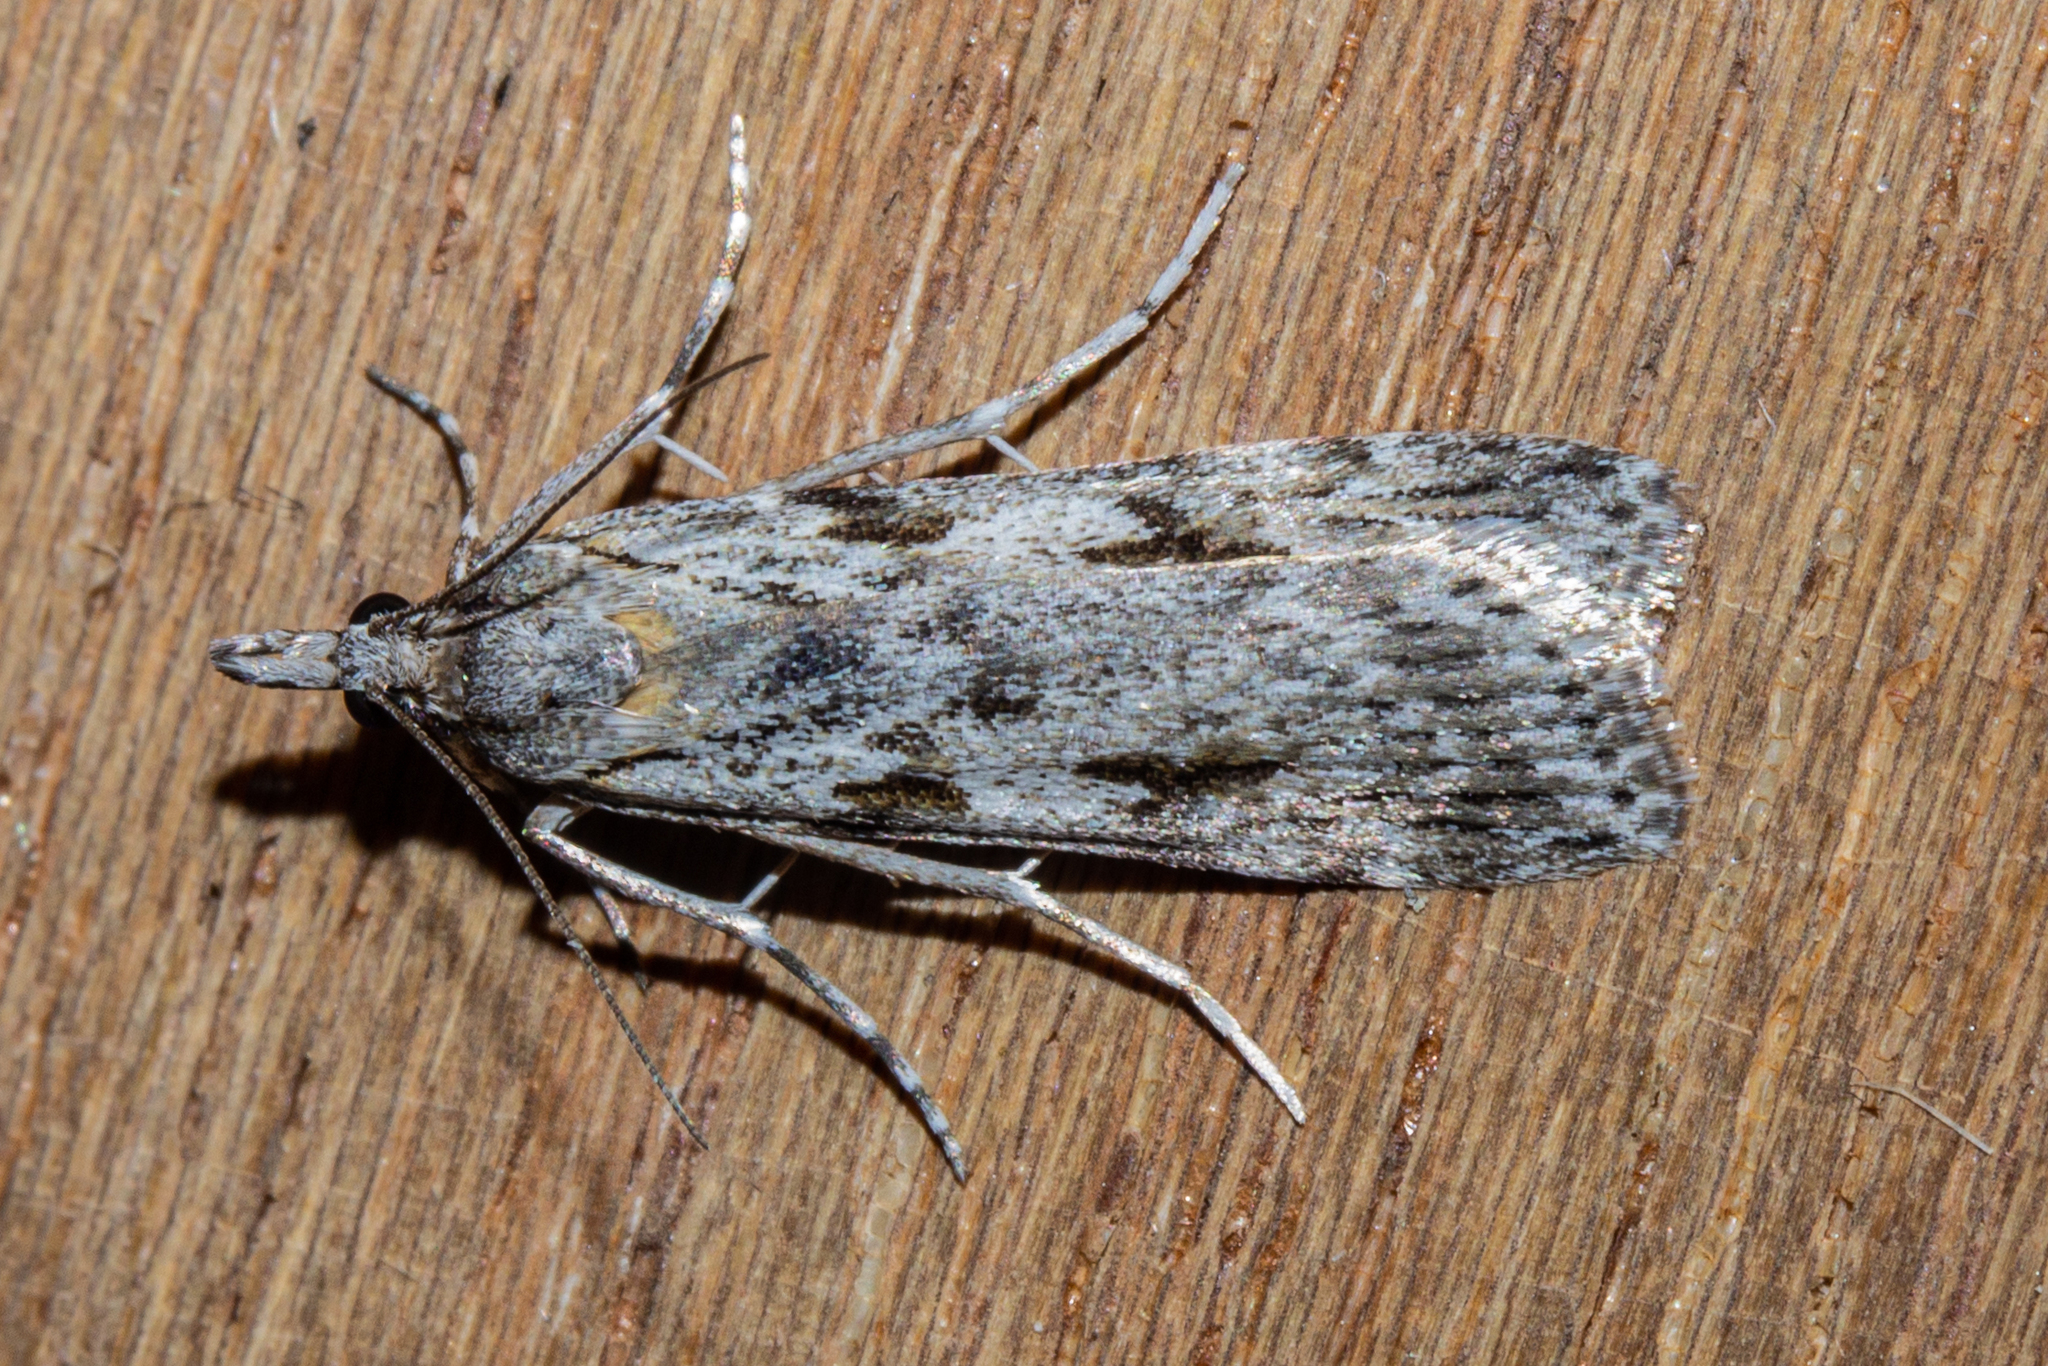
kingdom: Animalia
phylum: Arthropoda
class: Insecta
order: Lepidoptera
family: Crambidae
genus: Scoparia
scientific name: Scoparia halopis
